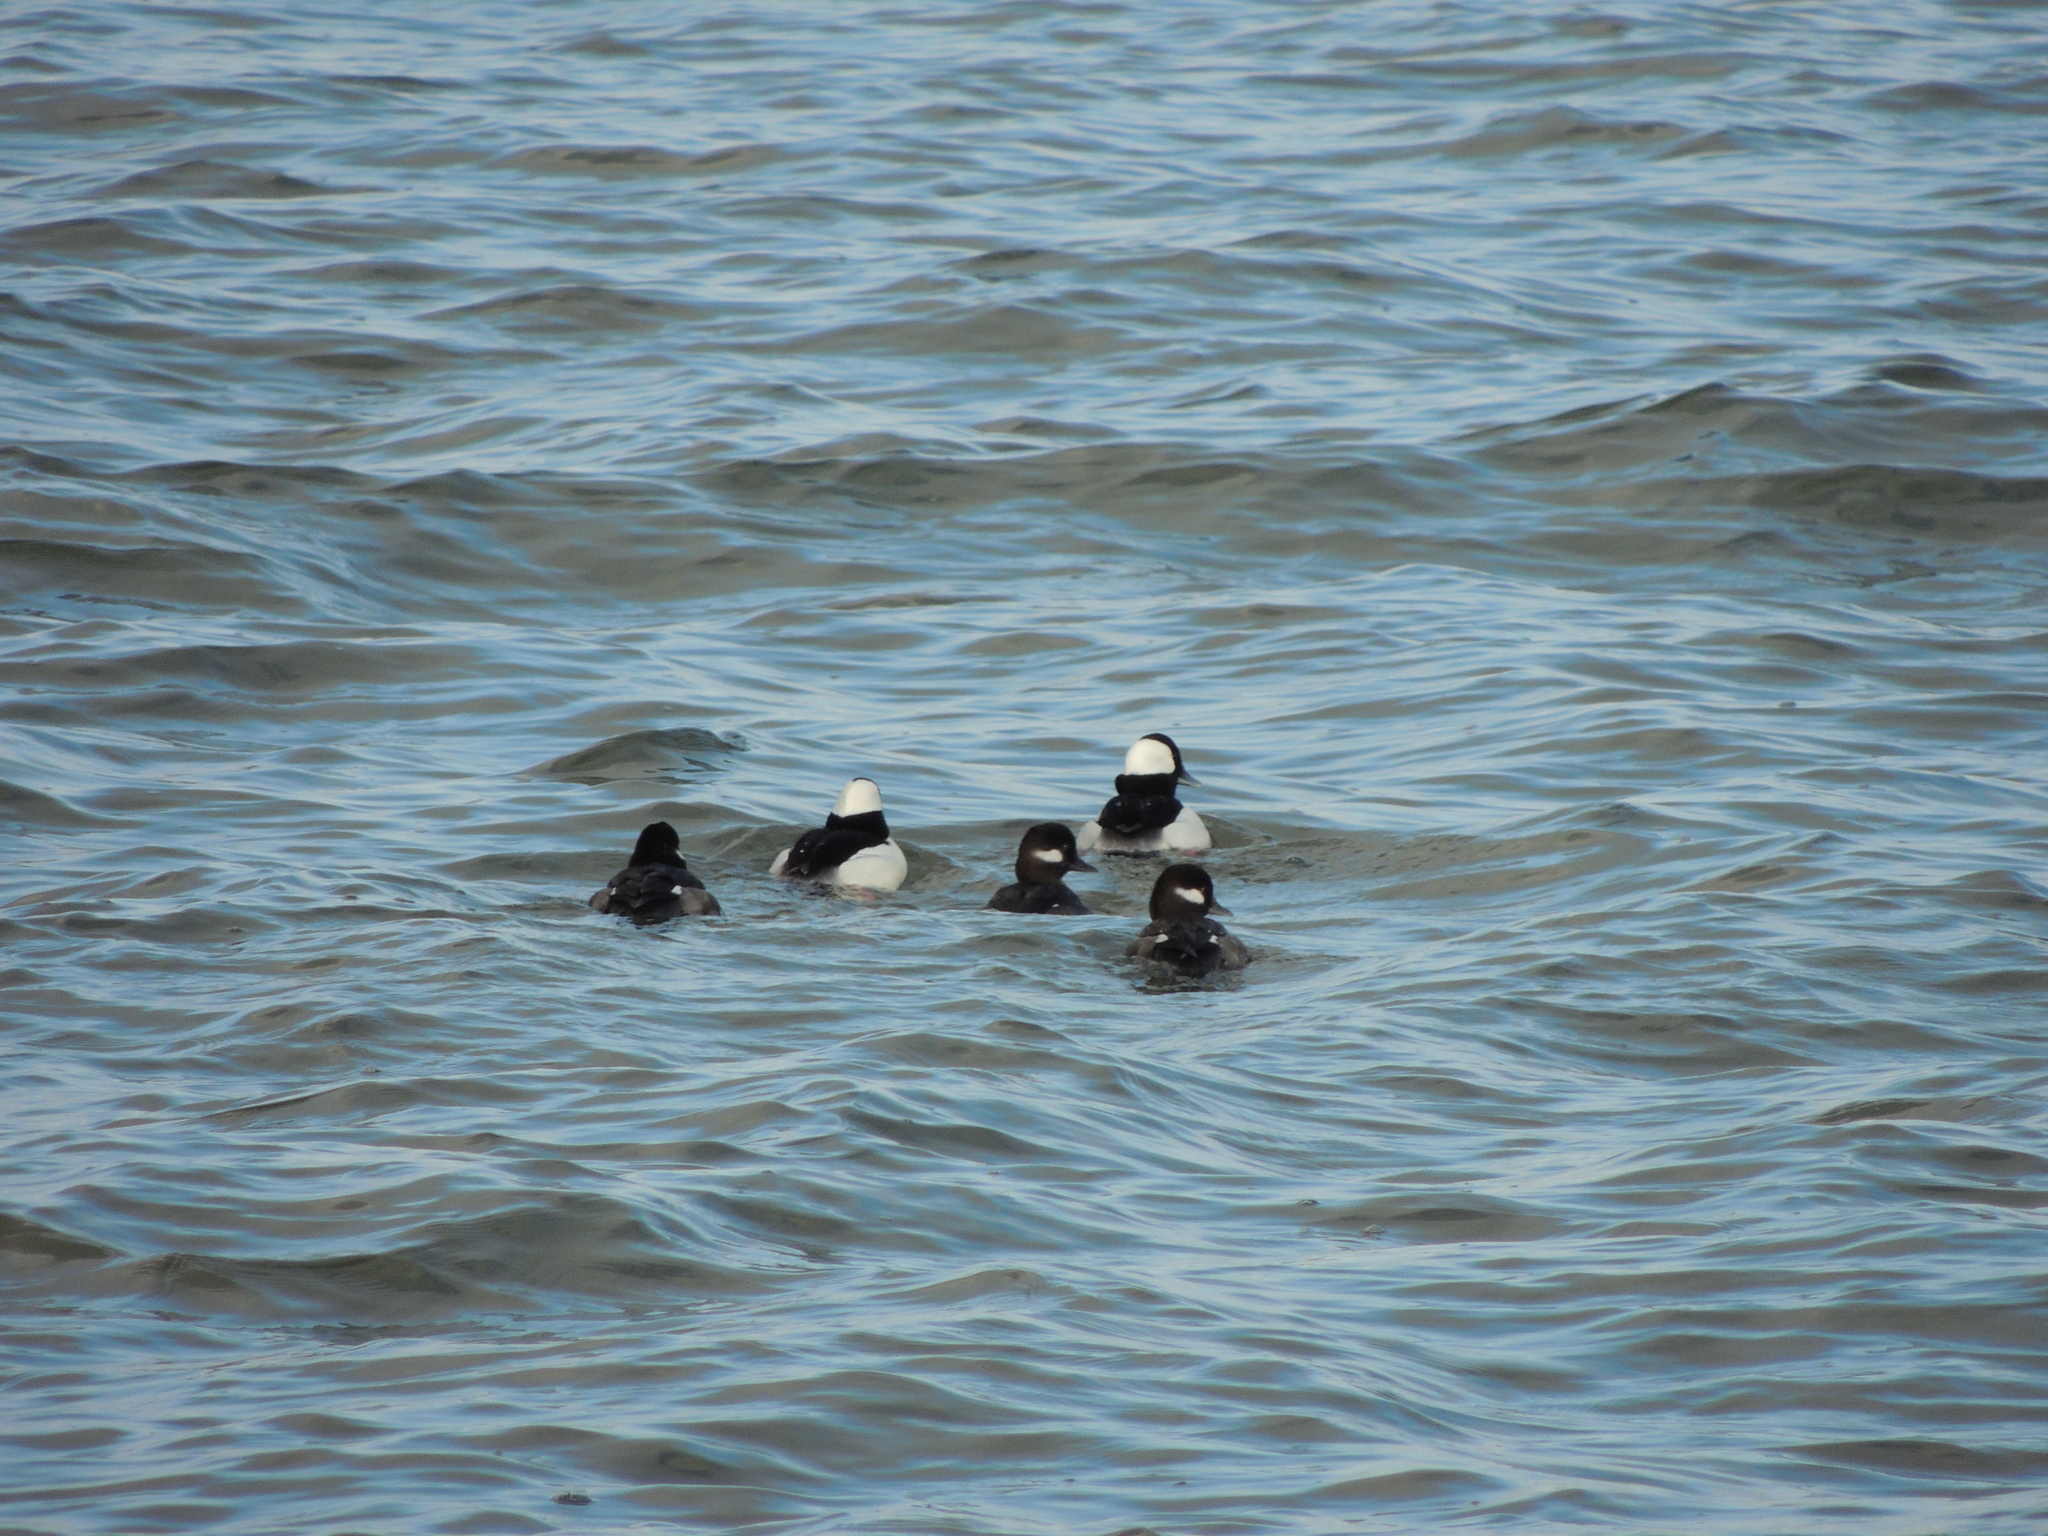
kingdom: Animalia
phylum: Chordata
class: Aves
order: Anseriformes
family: Anatidae
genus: Bucephala
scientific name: Bucephala albeola
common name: Bufflehead
